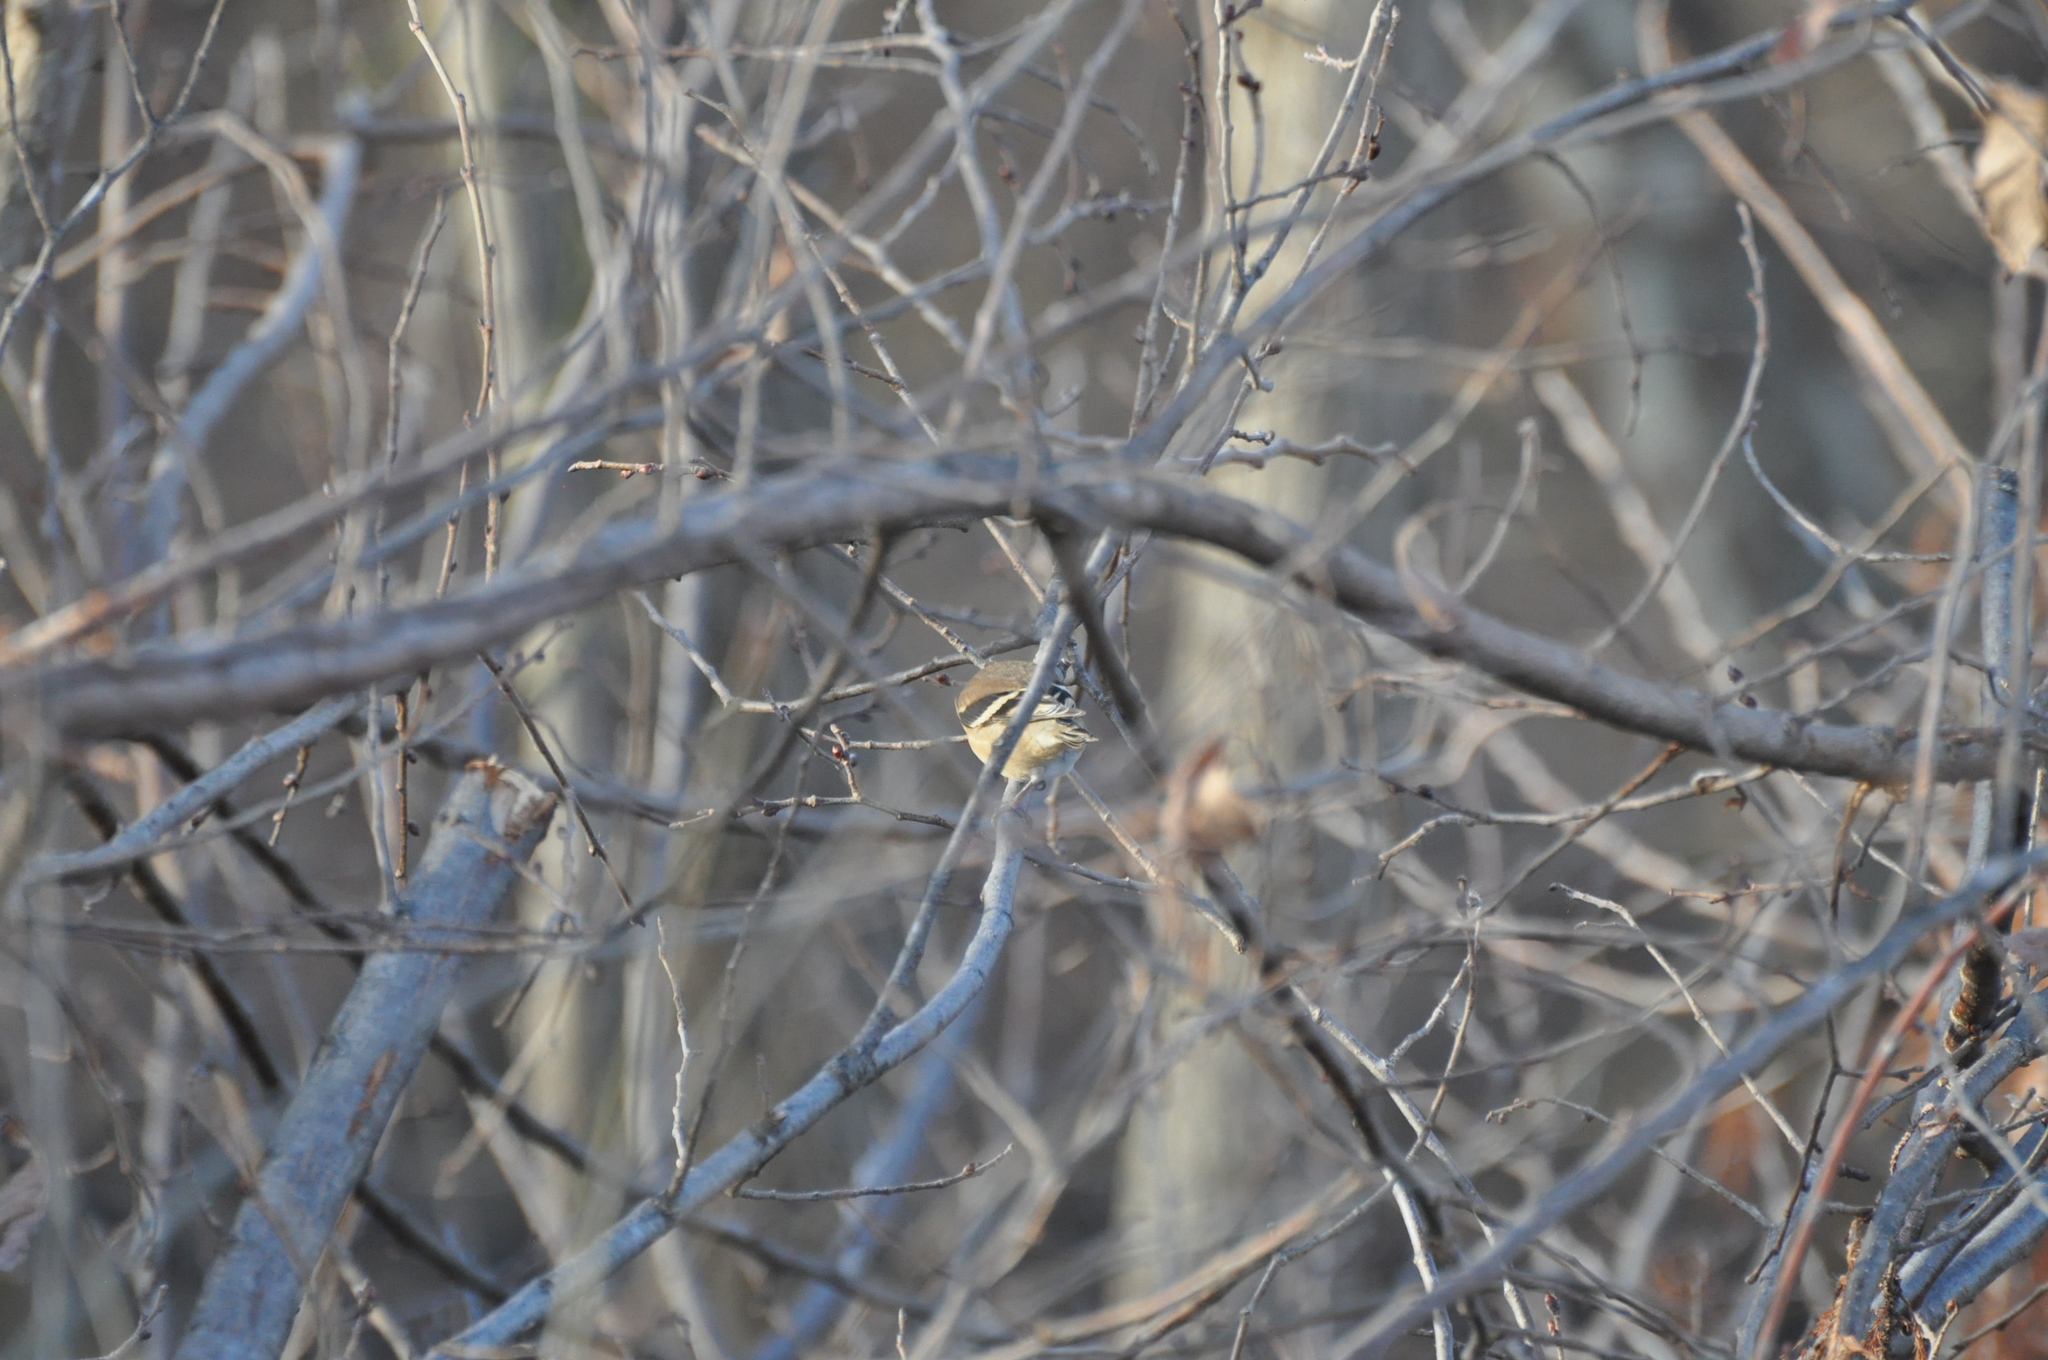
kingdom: Animalia
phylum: Chordata
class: Aves
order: Passeriformes
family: Fringillidae
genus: Spinus
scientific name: Spinus tristis
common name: American goldfinch
